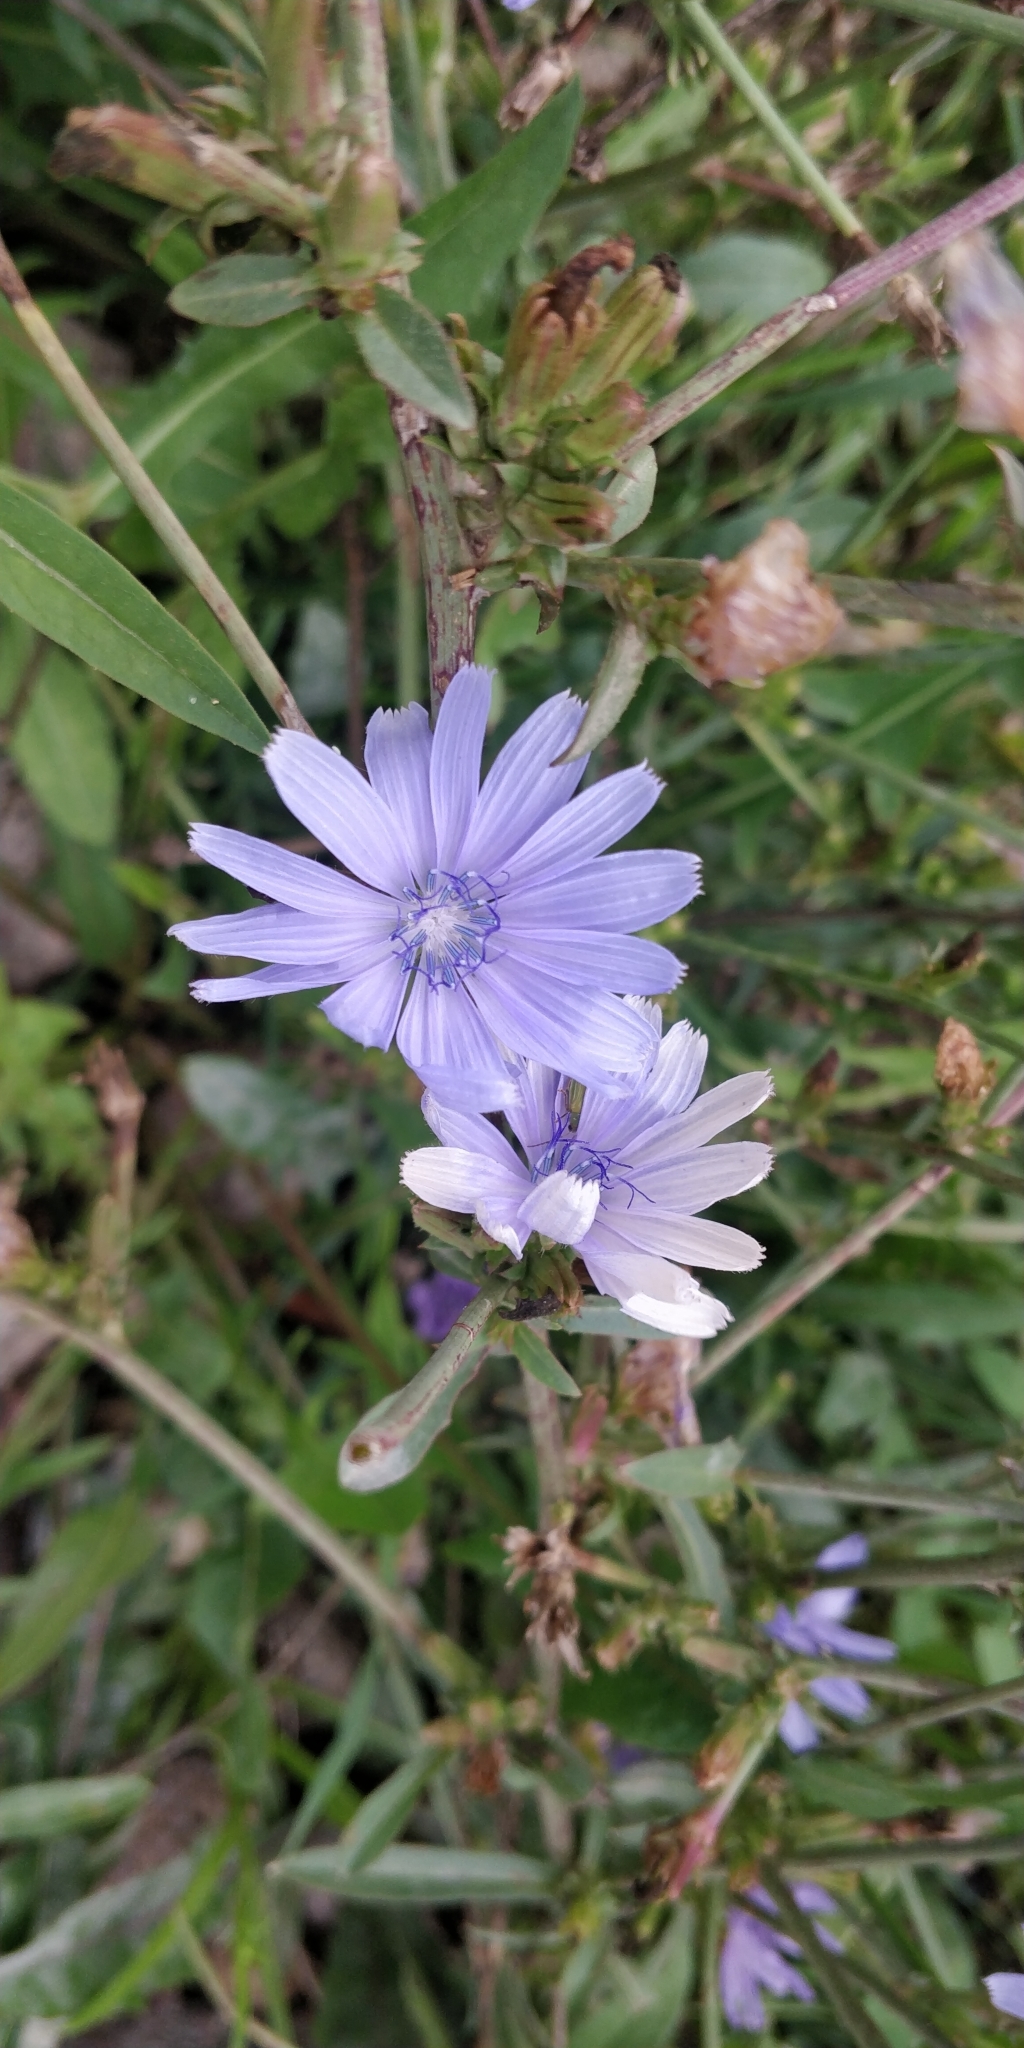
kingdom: Plantae
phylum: Tracheophyta
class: Magnoliopsida
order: Asterales
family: Asteraceae
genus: Cichorium
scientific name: Cichorium intybus
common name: Chicory
